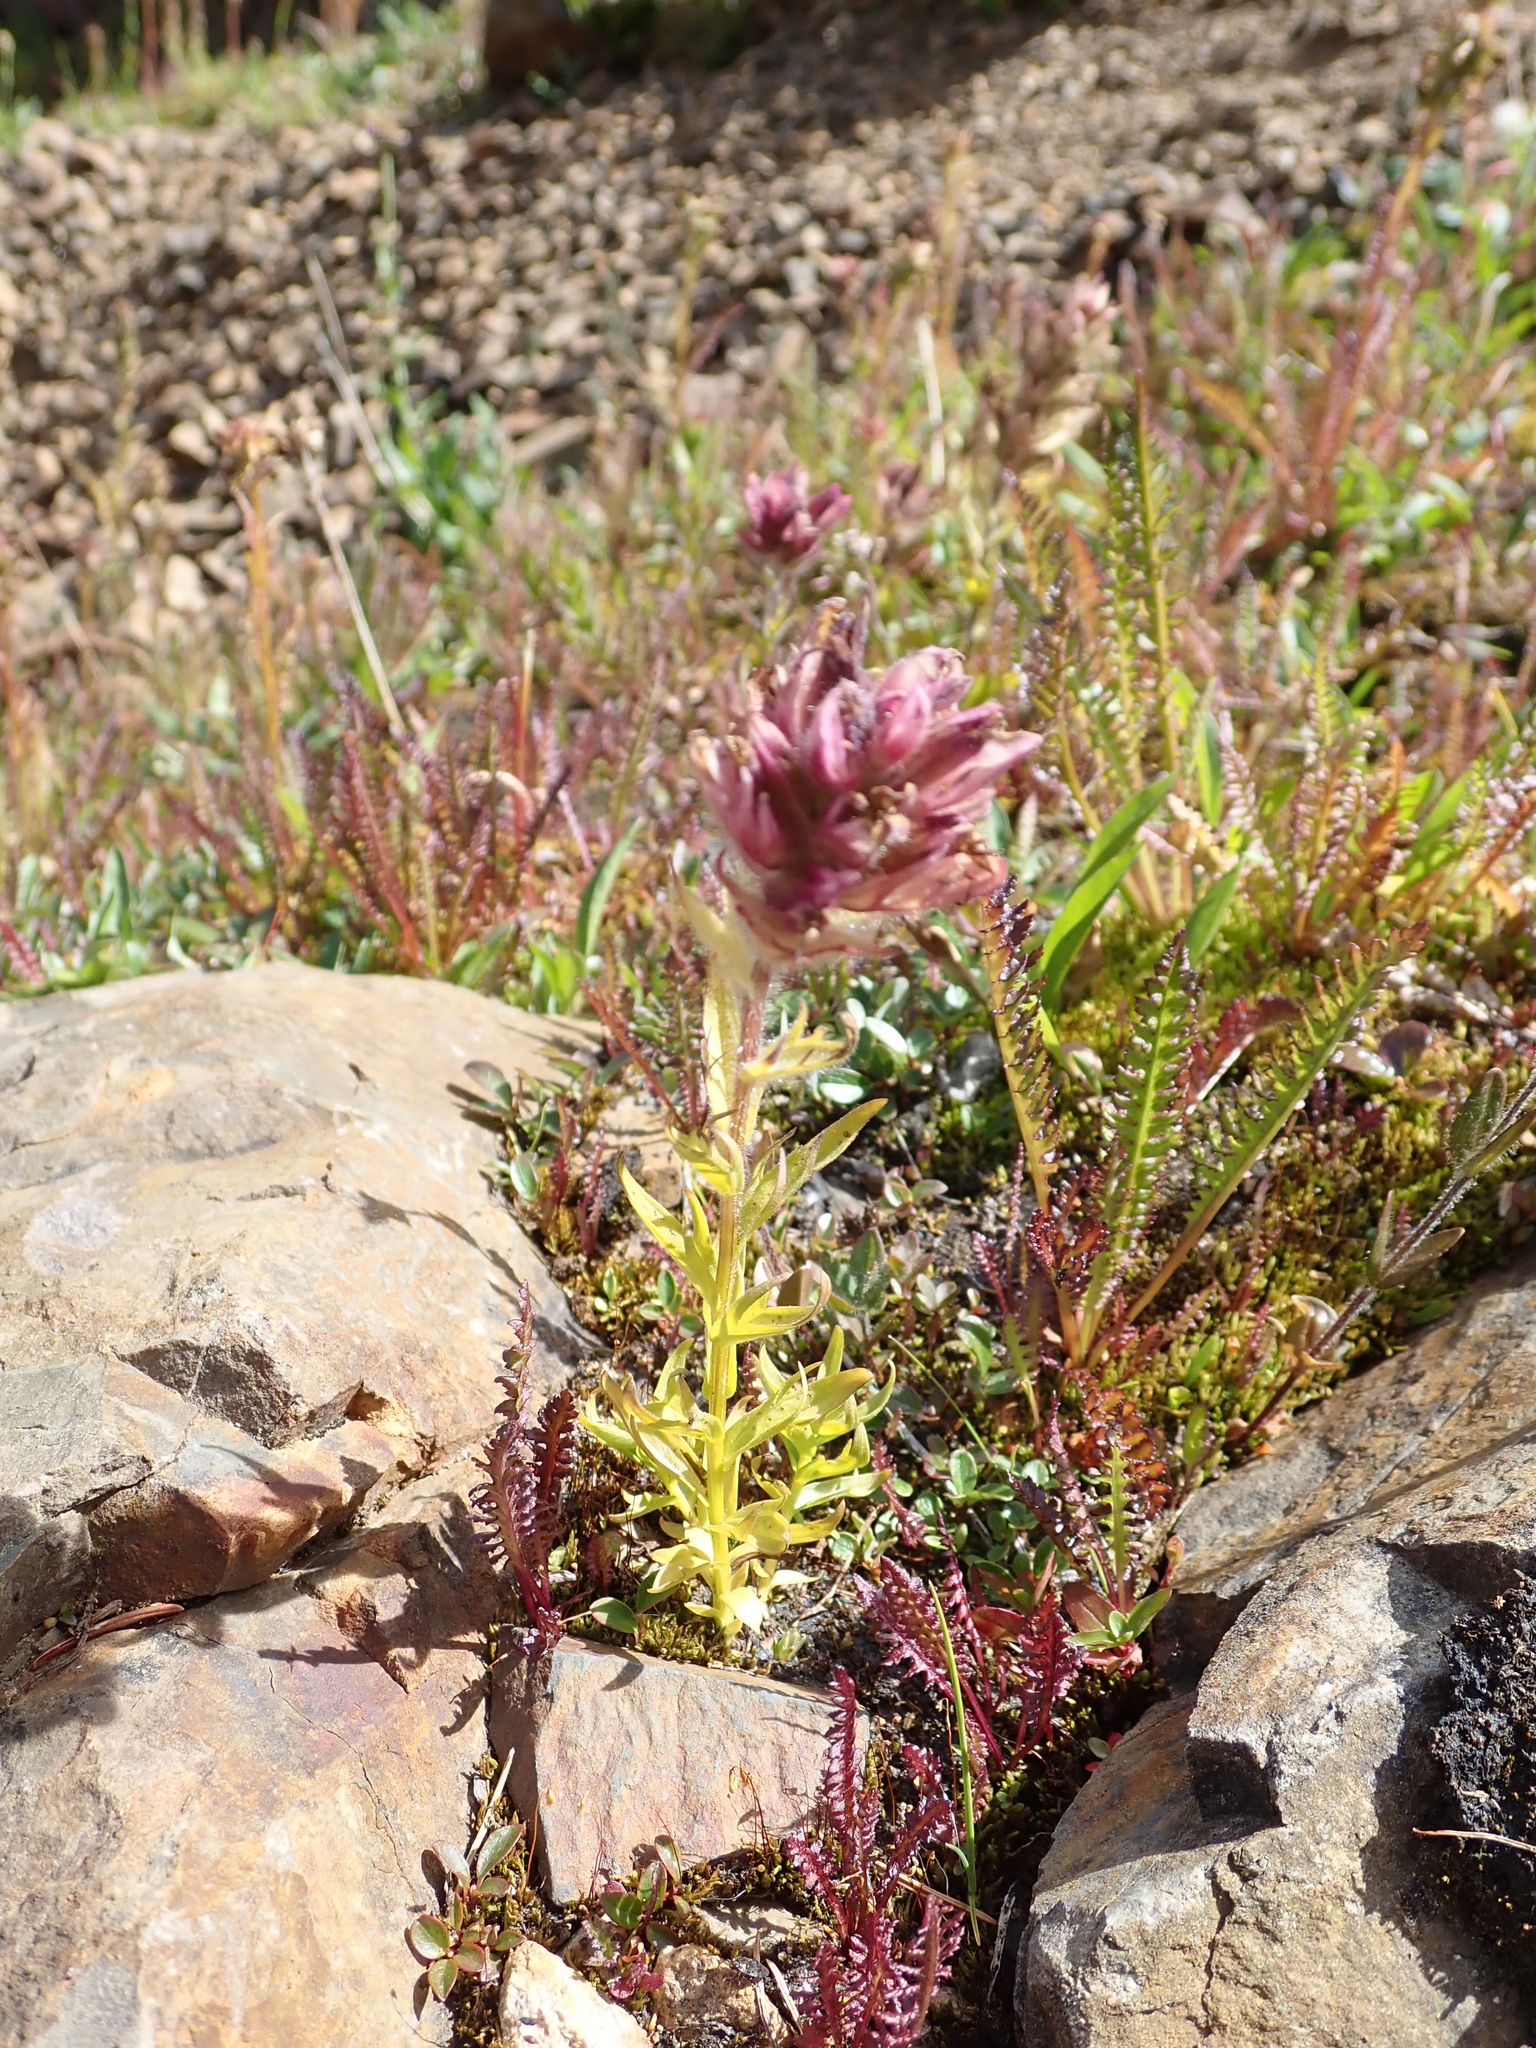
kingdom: Plantae
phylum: Tracheophyta
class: Magnoliopsida
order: Lamiales
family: Orobanchaceae
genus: Castilleja
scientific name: Castilleja parviflora
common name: Mountain paintbrush
